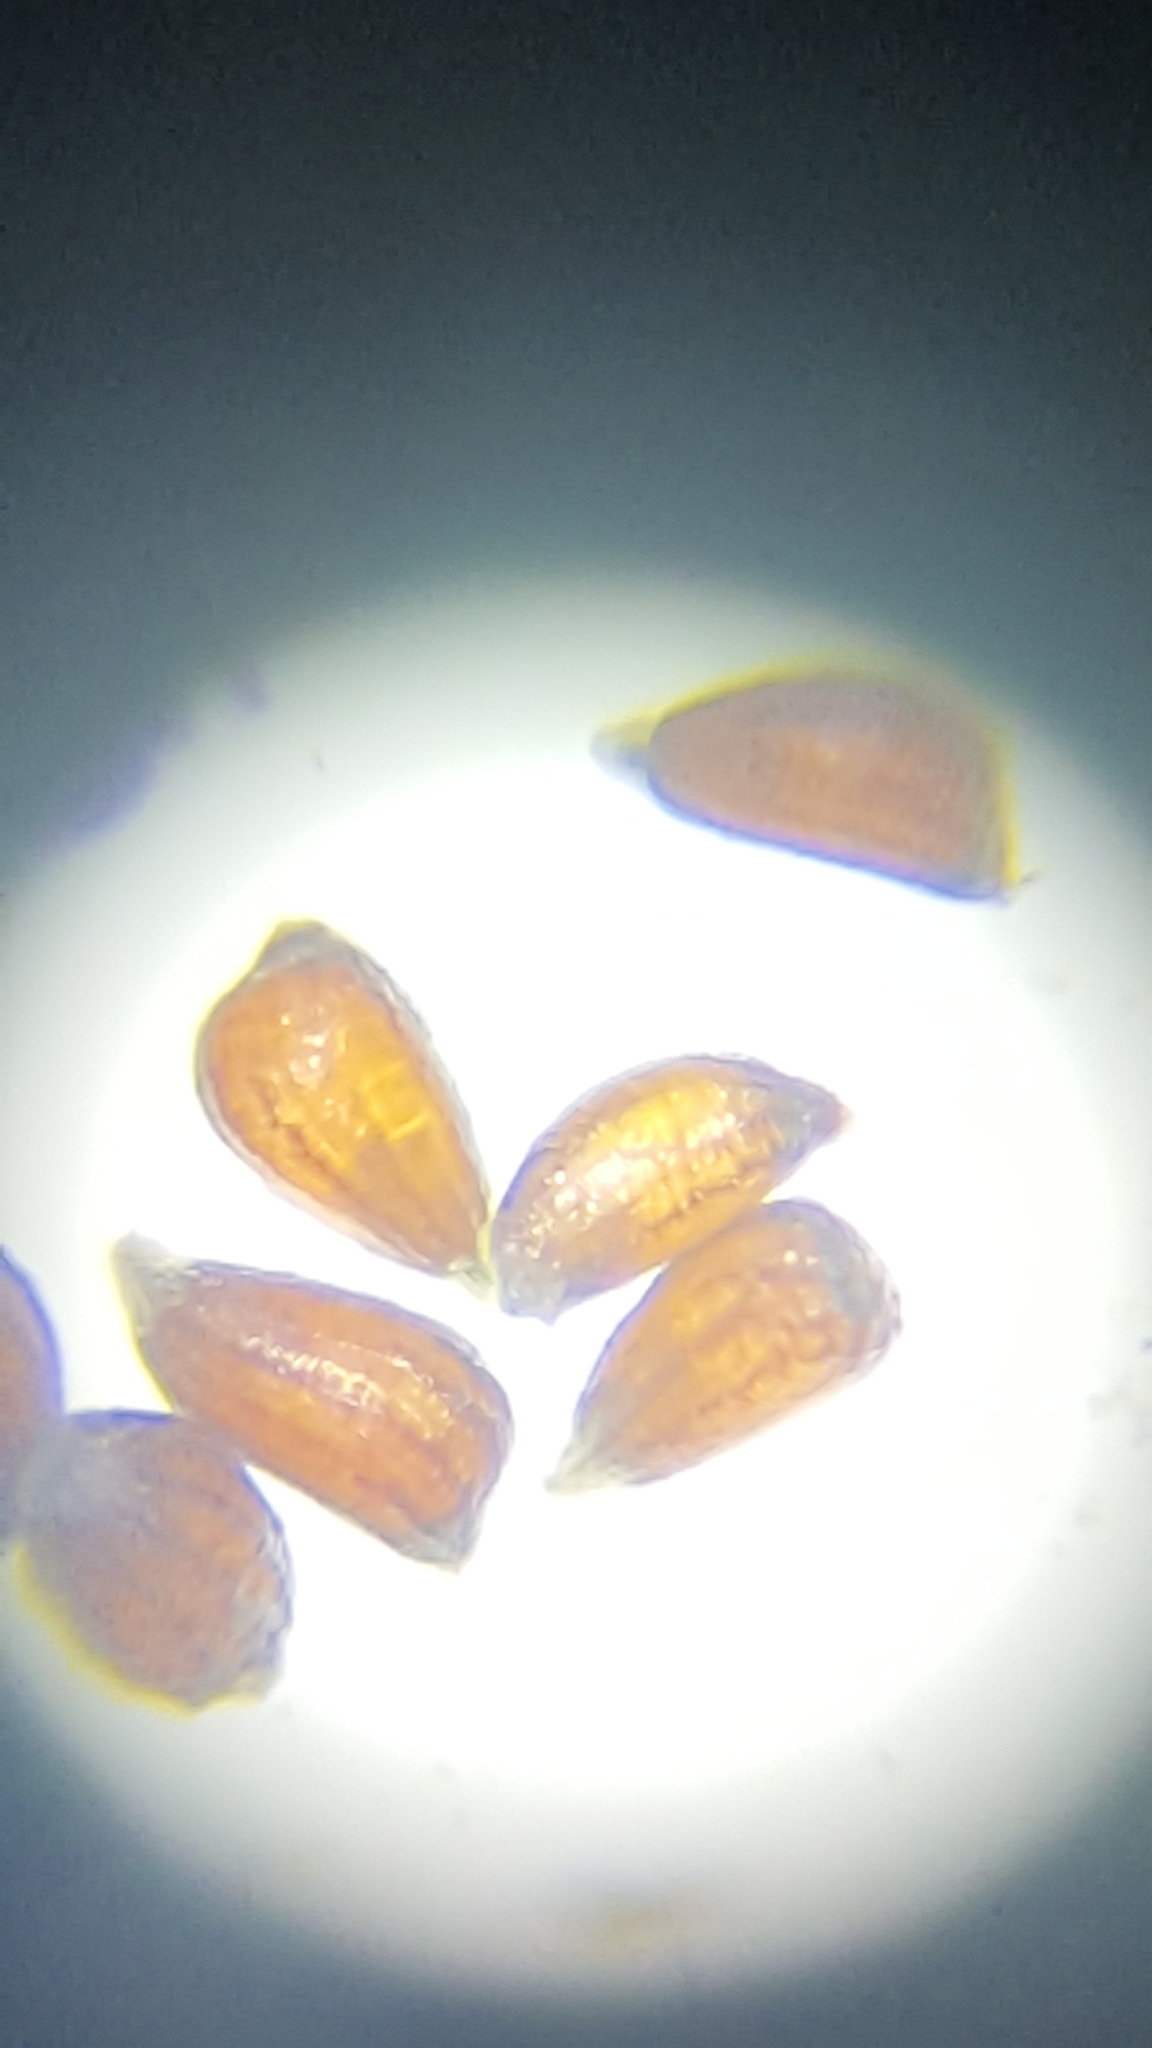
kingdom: Plantae
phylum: Tracheophyta
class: Liliopsida
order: Poales
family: Juncaceae
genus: Juncus
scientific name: Juncus compressus
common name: Round-fruited rush
